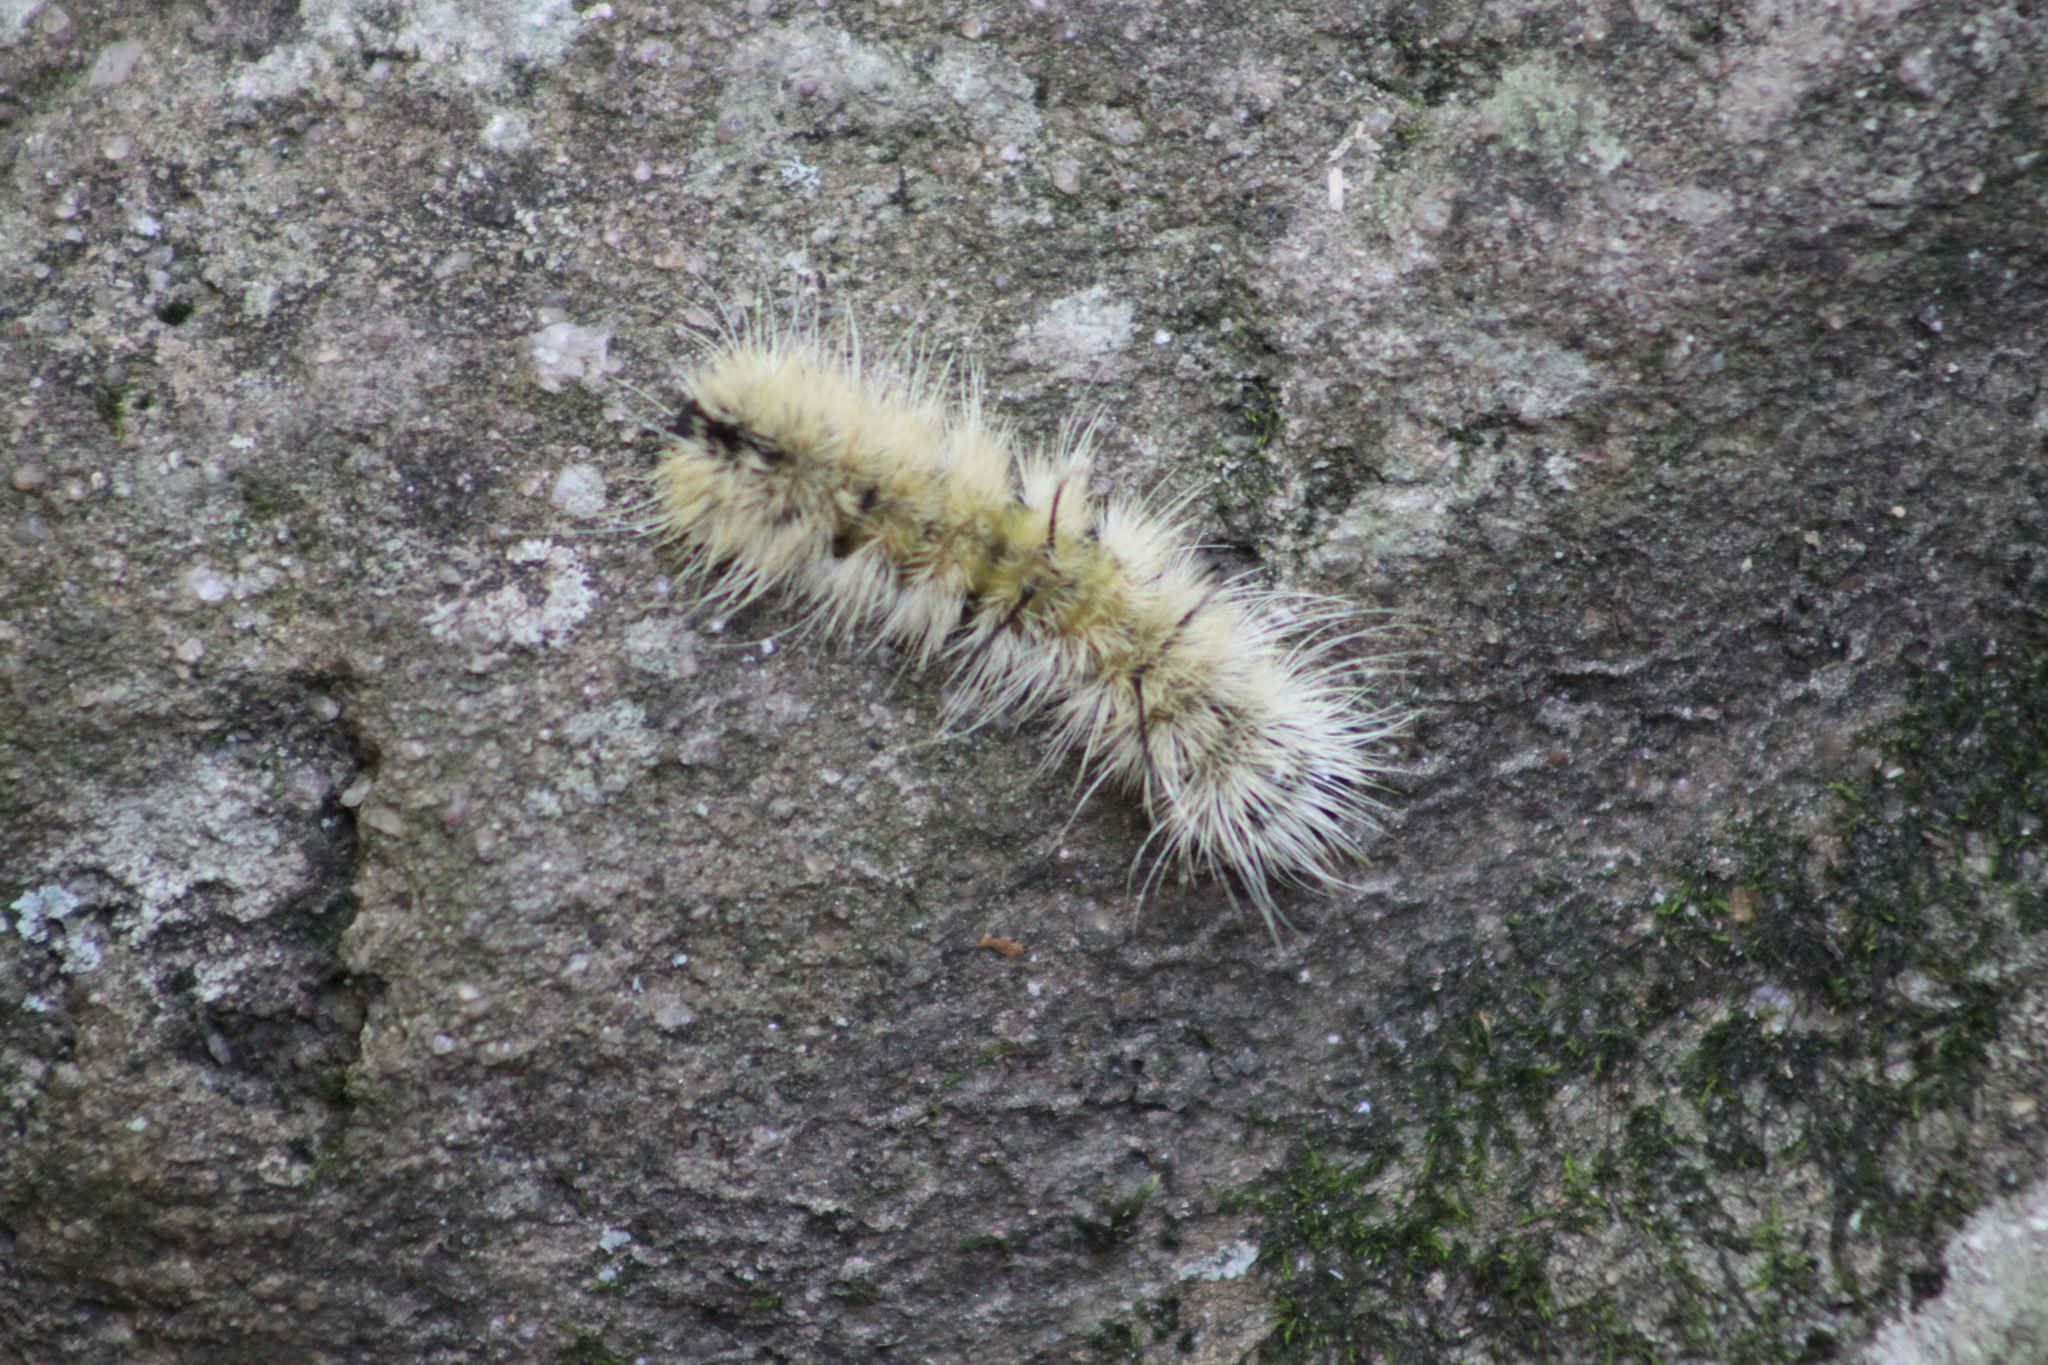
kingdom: Animalia
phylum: Arthropoda
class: Insecta
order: Lepidoptera
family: Noctuidae
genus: Acronicta
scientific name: Acronicta americana
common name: American dagger
